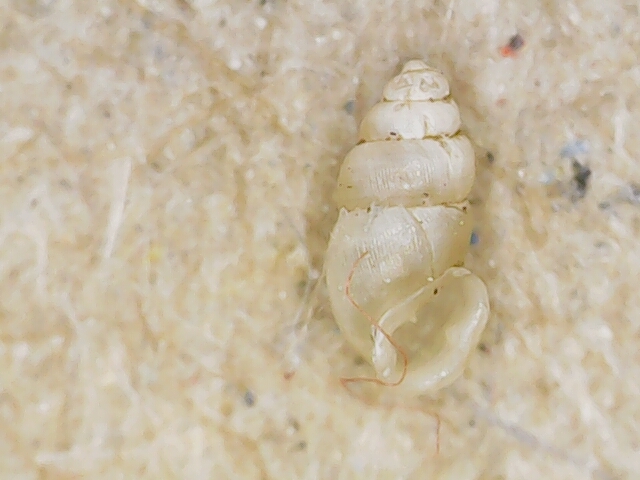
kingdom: Animalia
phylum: Mollusca
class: Gastropoda
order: Ellobiida
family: Ellobiidae
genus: Carychium
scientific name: Carychium tridentatum
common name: Long-toothed herald snail
